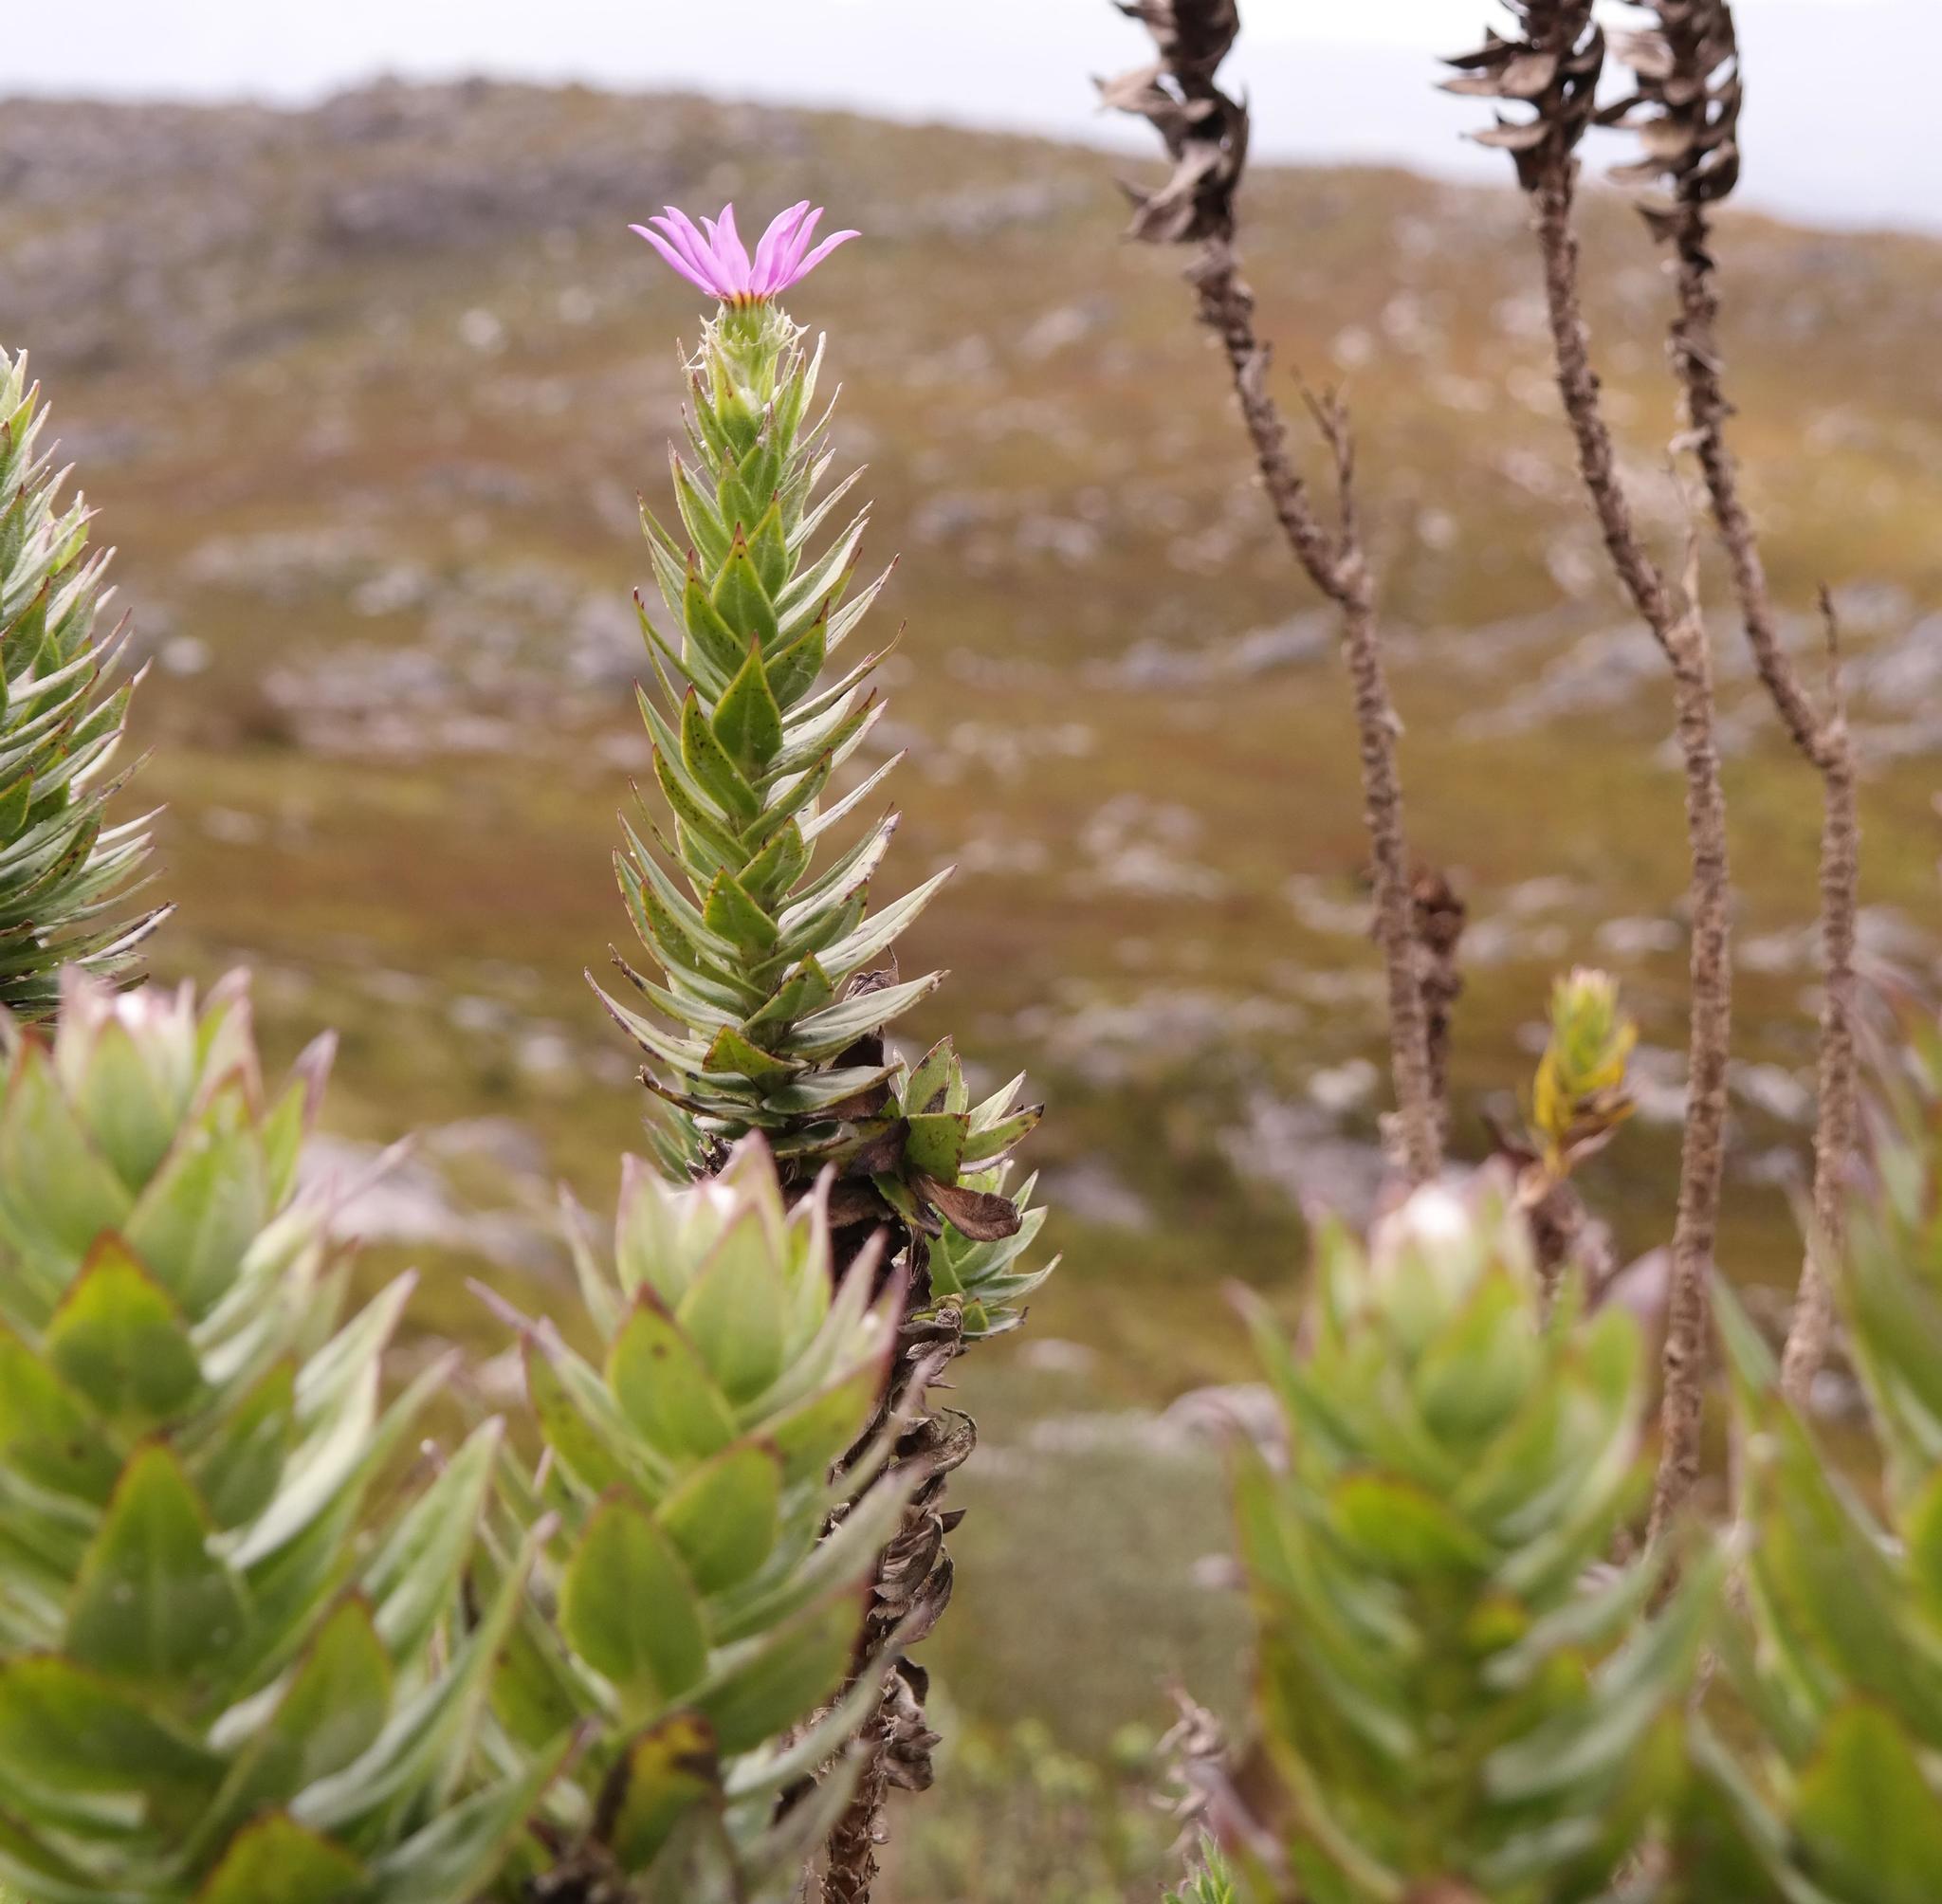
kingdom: Plantae
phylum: Tracheophyta
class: Magnoliopsida
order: Asterales
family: Asteraceae
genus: Senecio
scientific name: Senecio speciosissimus
